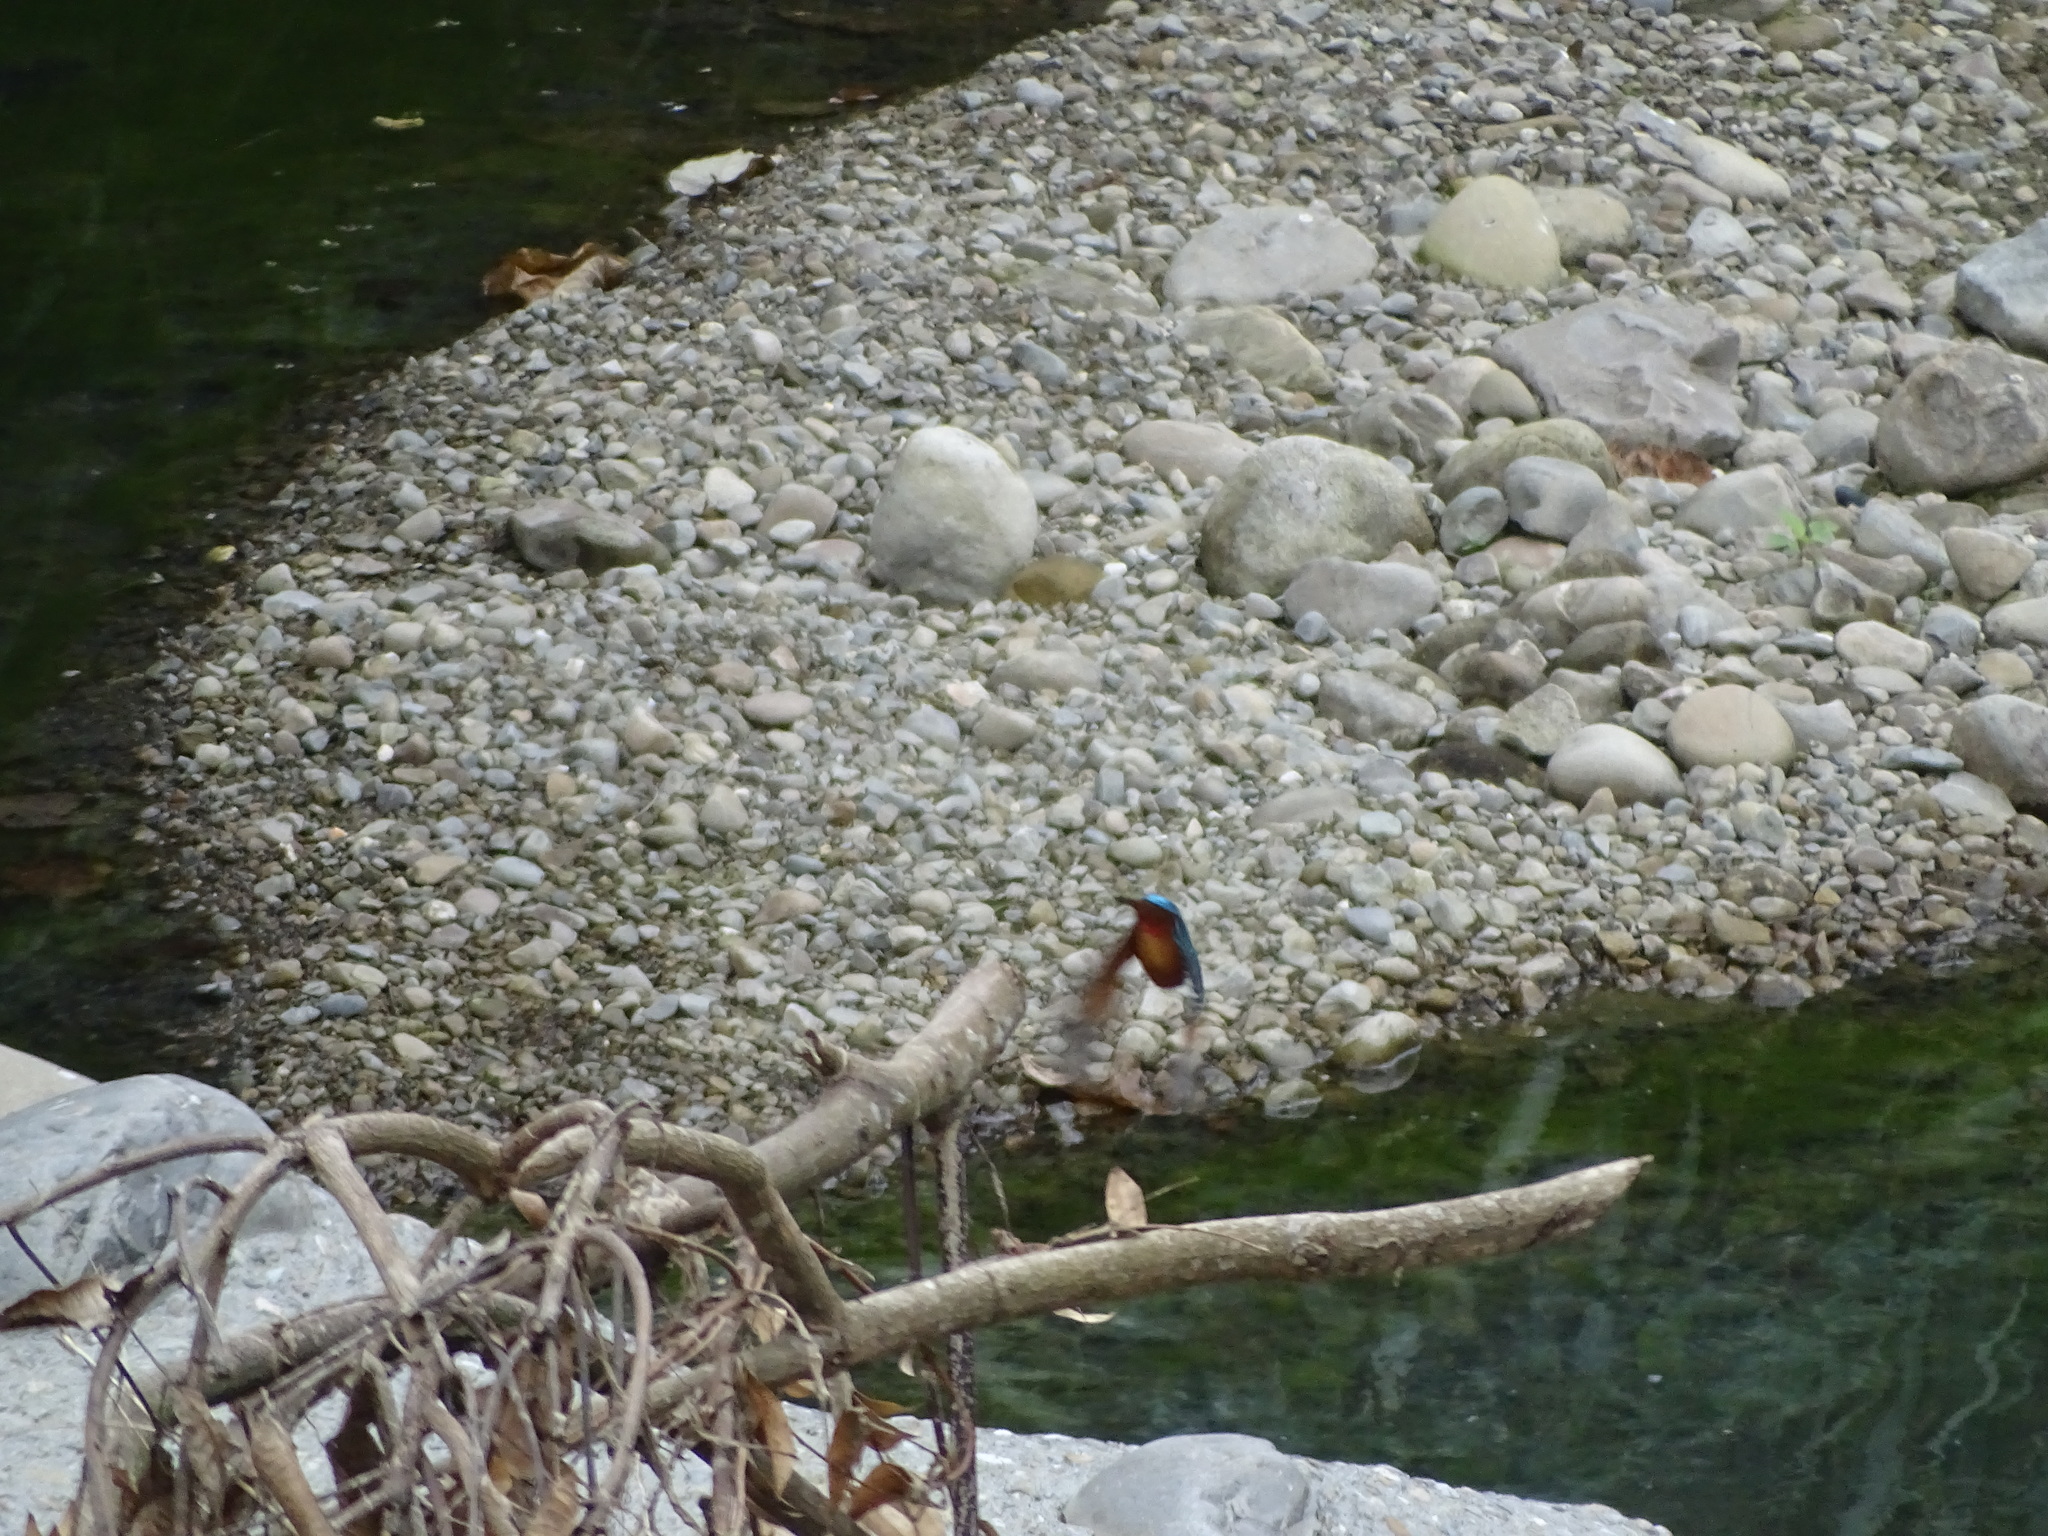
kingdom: Animalia
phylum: Chordata
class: Aves
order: Coraciiformes
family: Alcedinidae
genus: Alcedo
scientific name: Alcedo atthis
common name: Common kingfisher
